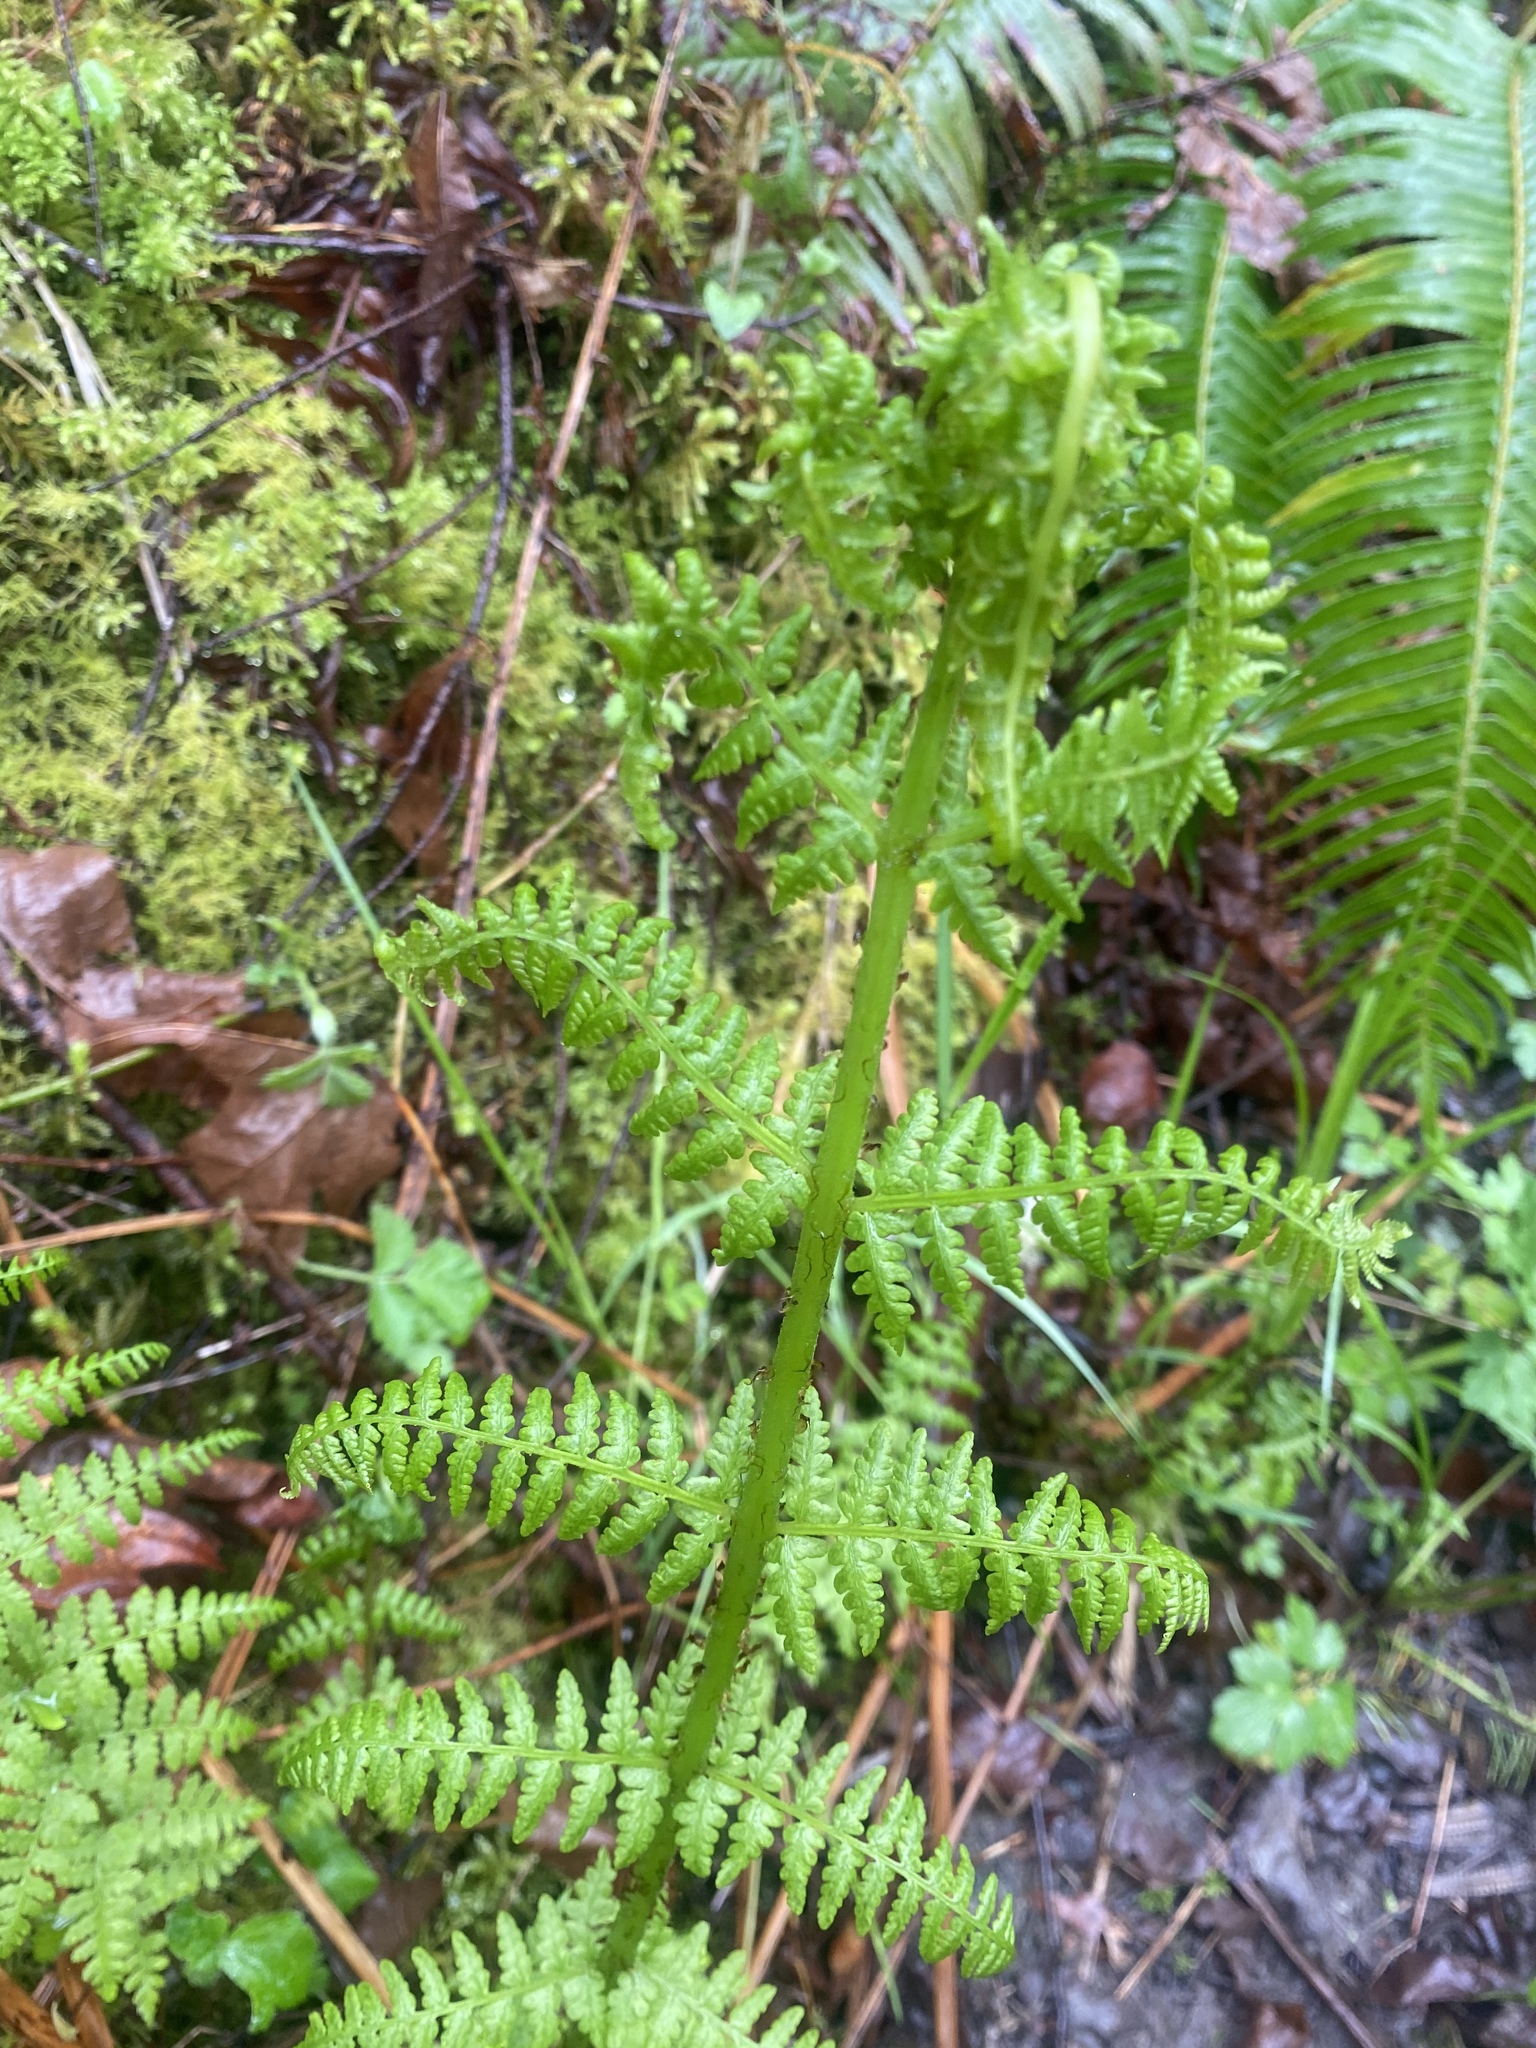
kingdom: Plantae
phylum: Tracheophyta
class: Polypodiopsida
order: Polypodiales
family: Athyriaceae
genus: Athyrium
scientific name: Athyrium filix-femina
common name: Lady fern
